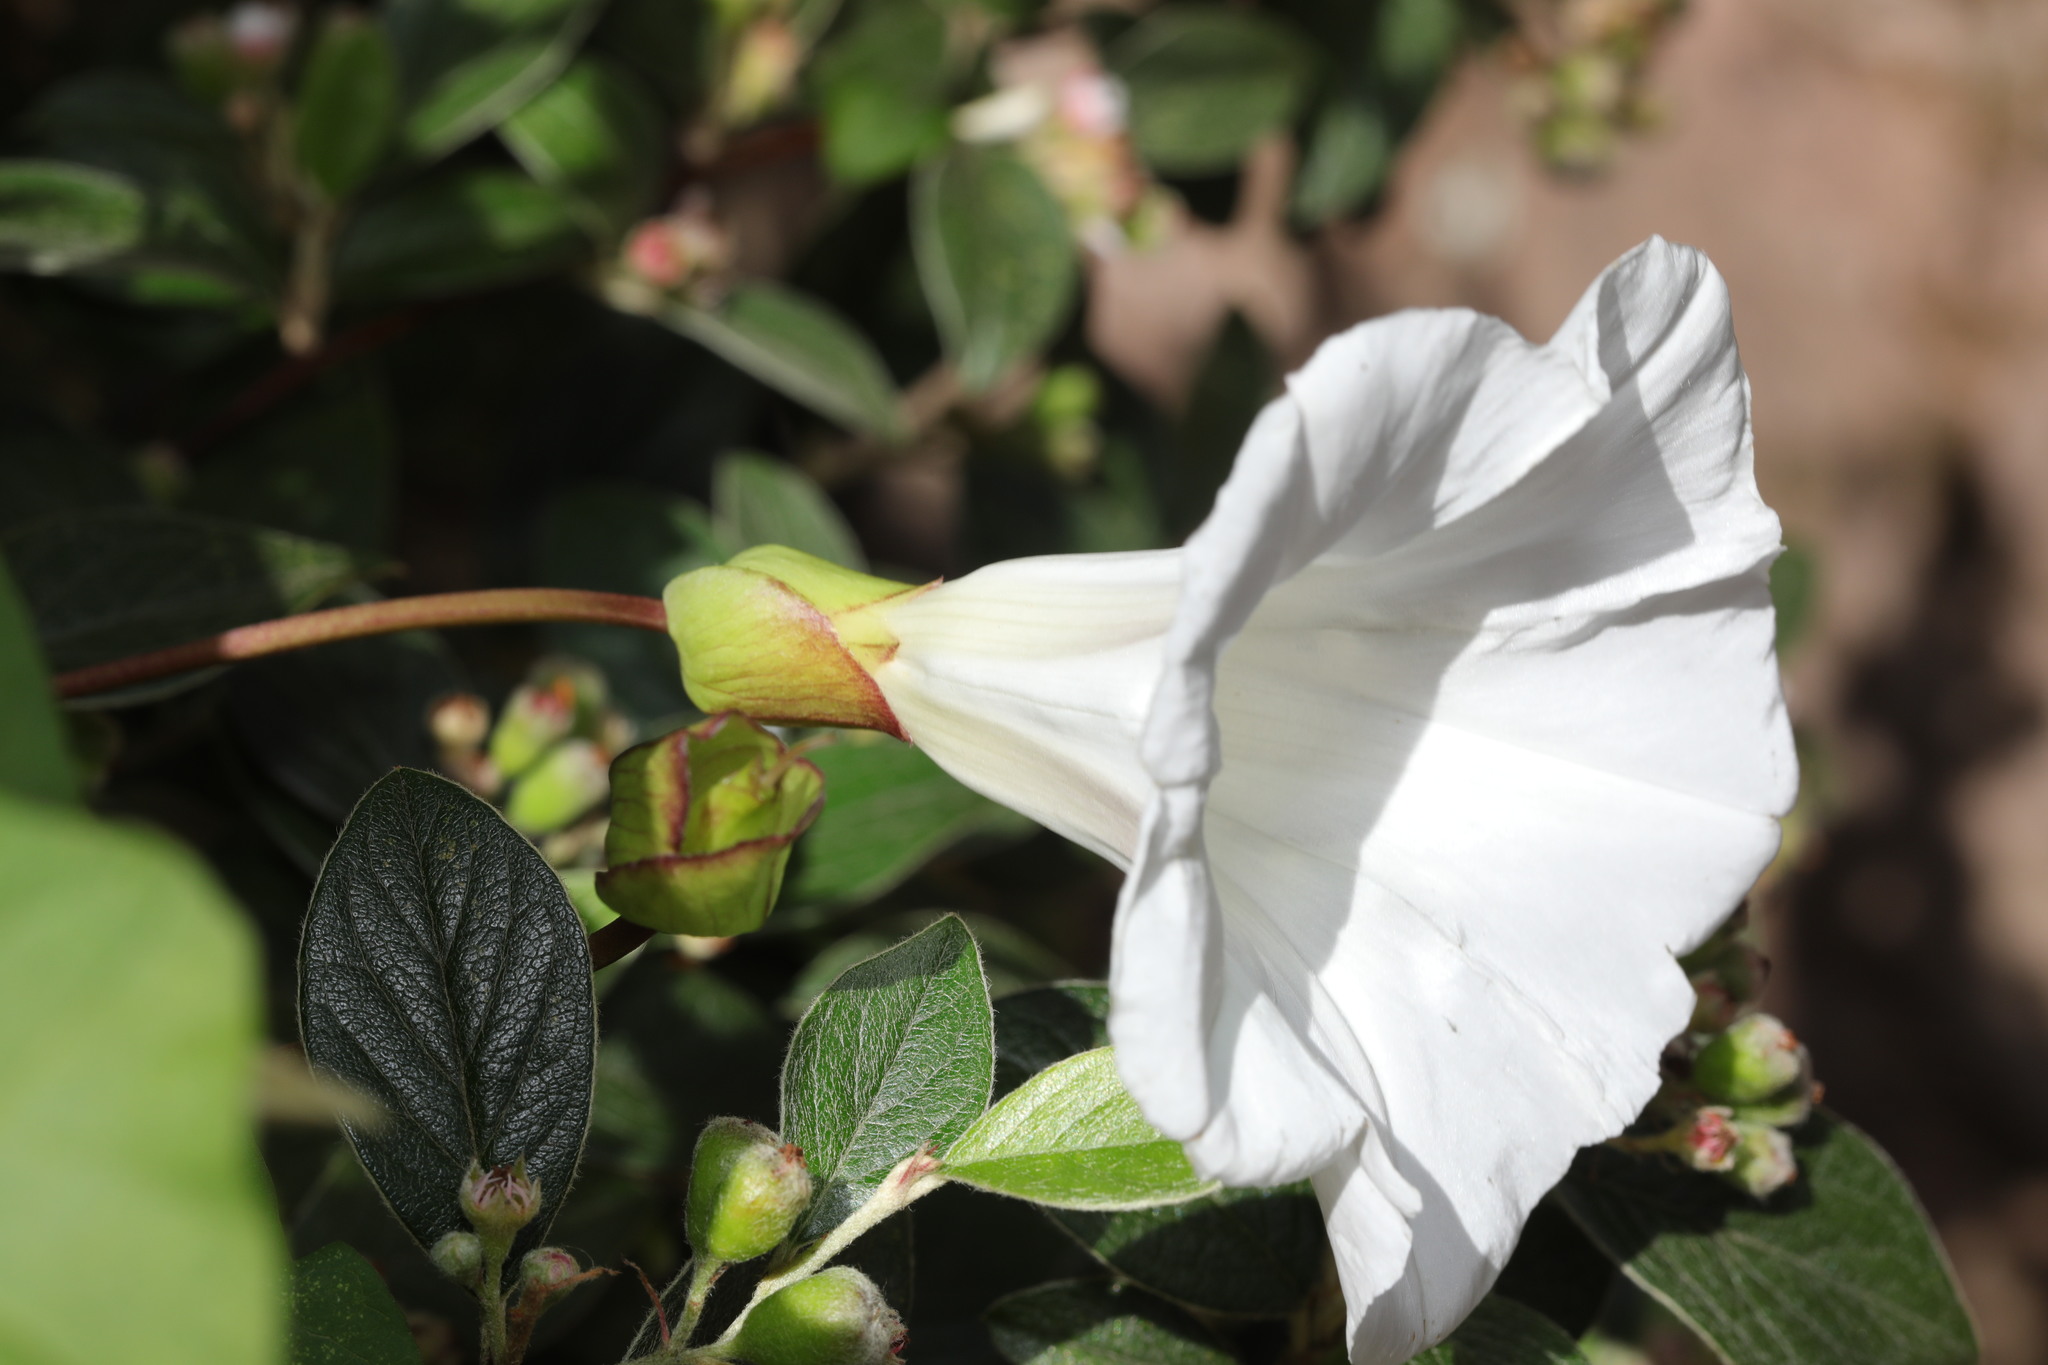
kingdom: Plantae
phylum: Tracheophyta
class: Magnoliopsida
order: Solanales
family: Convolvulaceae
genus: Calystegia
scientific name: Calystegia silvatica
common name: Large bindweed
